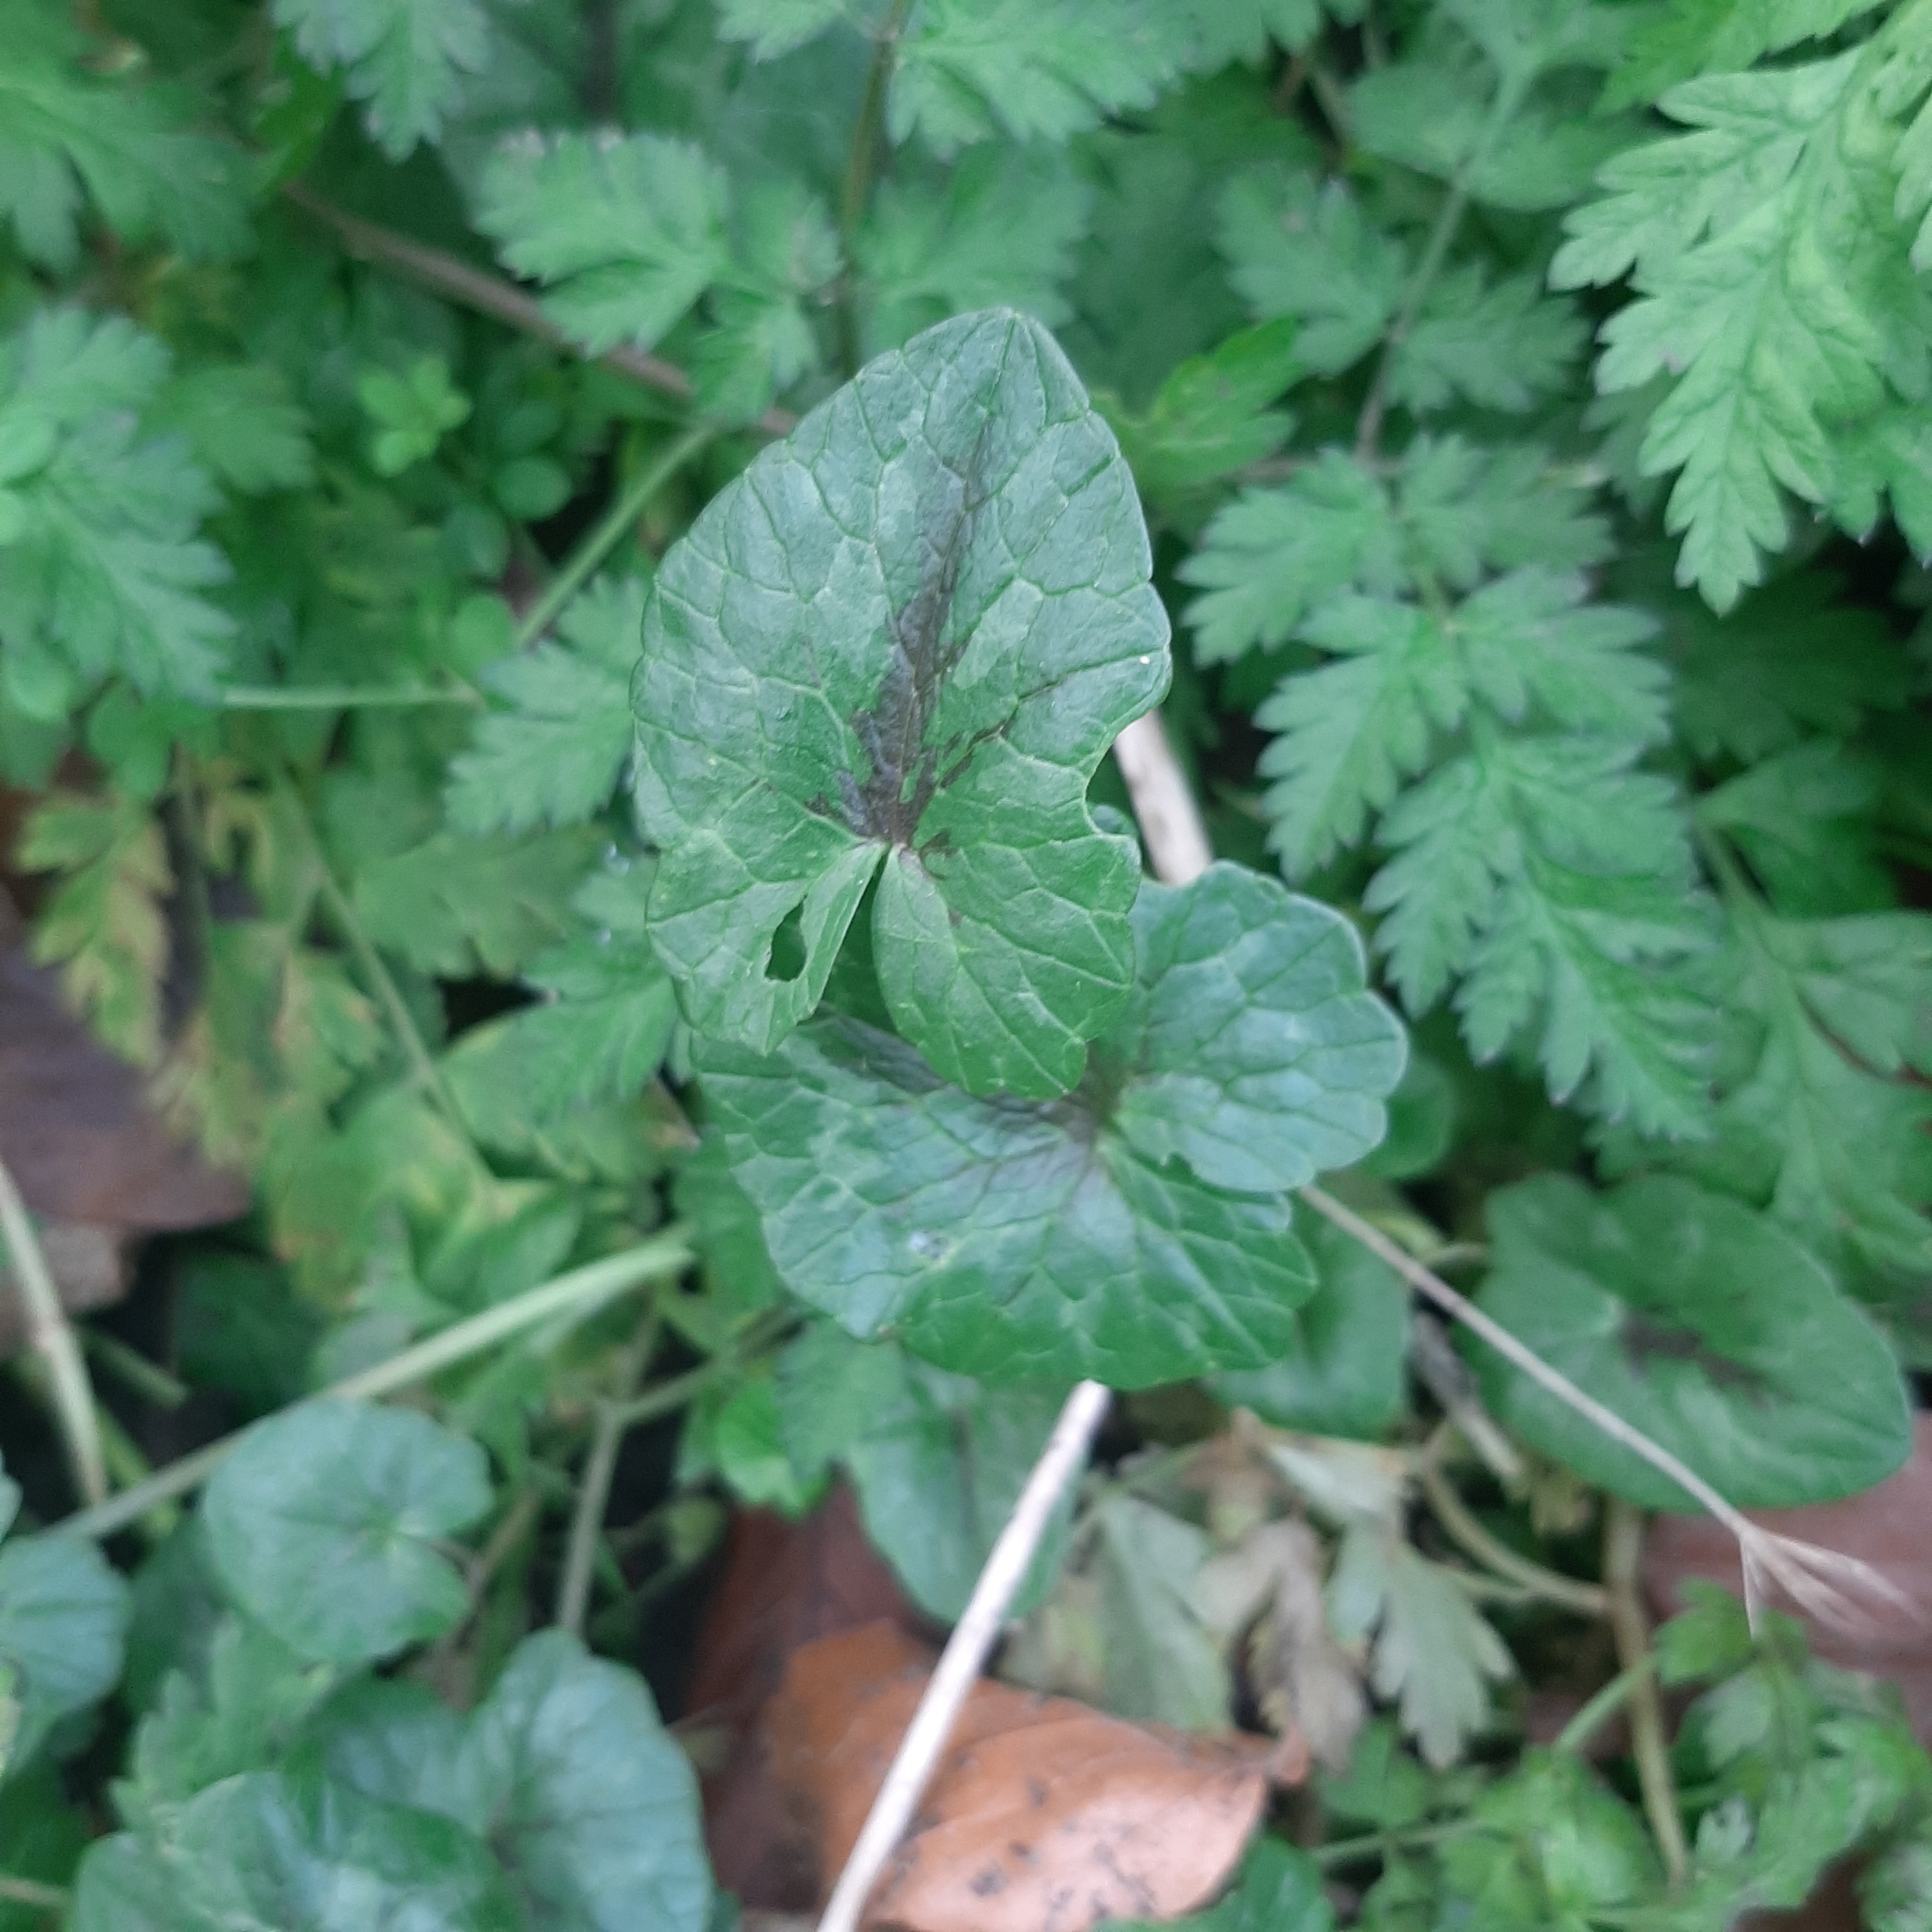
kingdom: Plantae
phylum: Tracheophyta
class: Liliopsida
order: Alismatales
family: Araceae
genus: Arum
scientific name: Arum maculatum
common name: Lords-and-ladies
